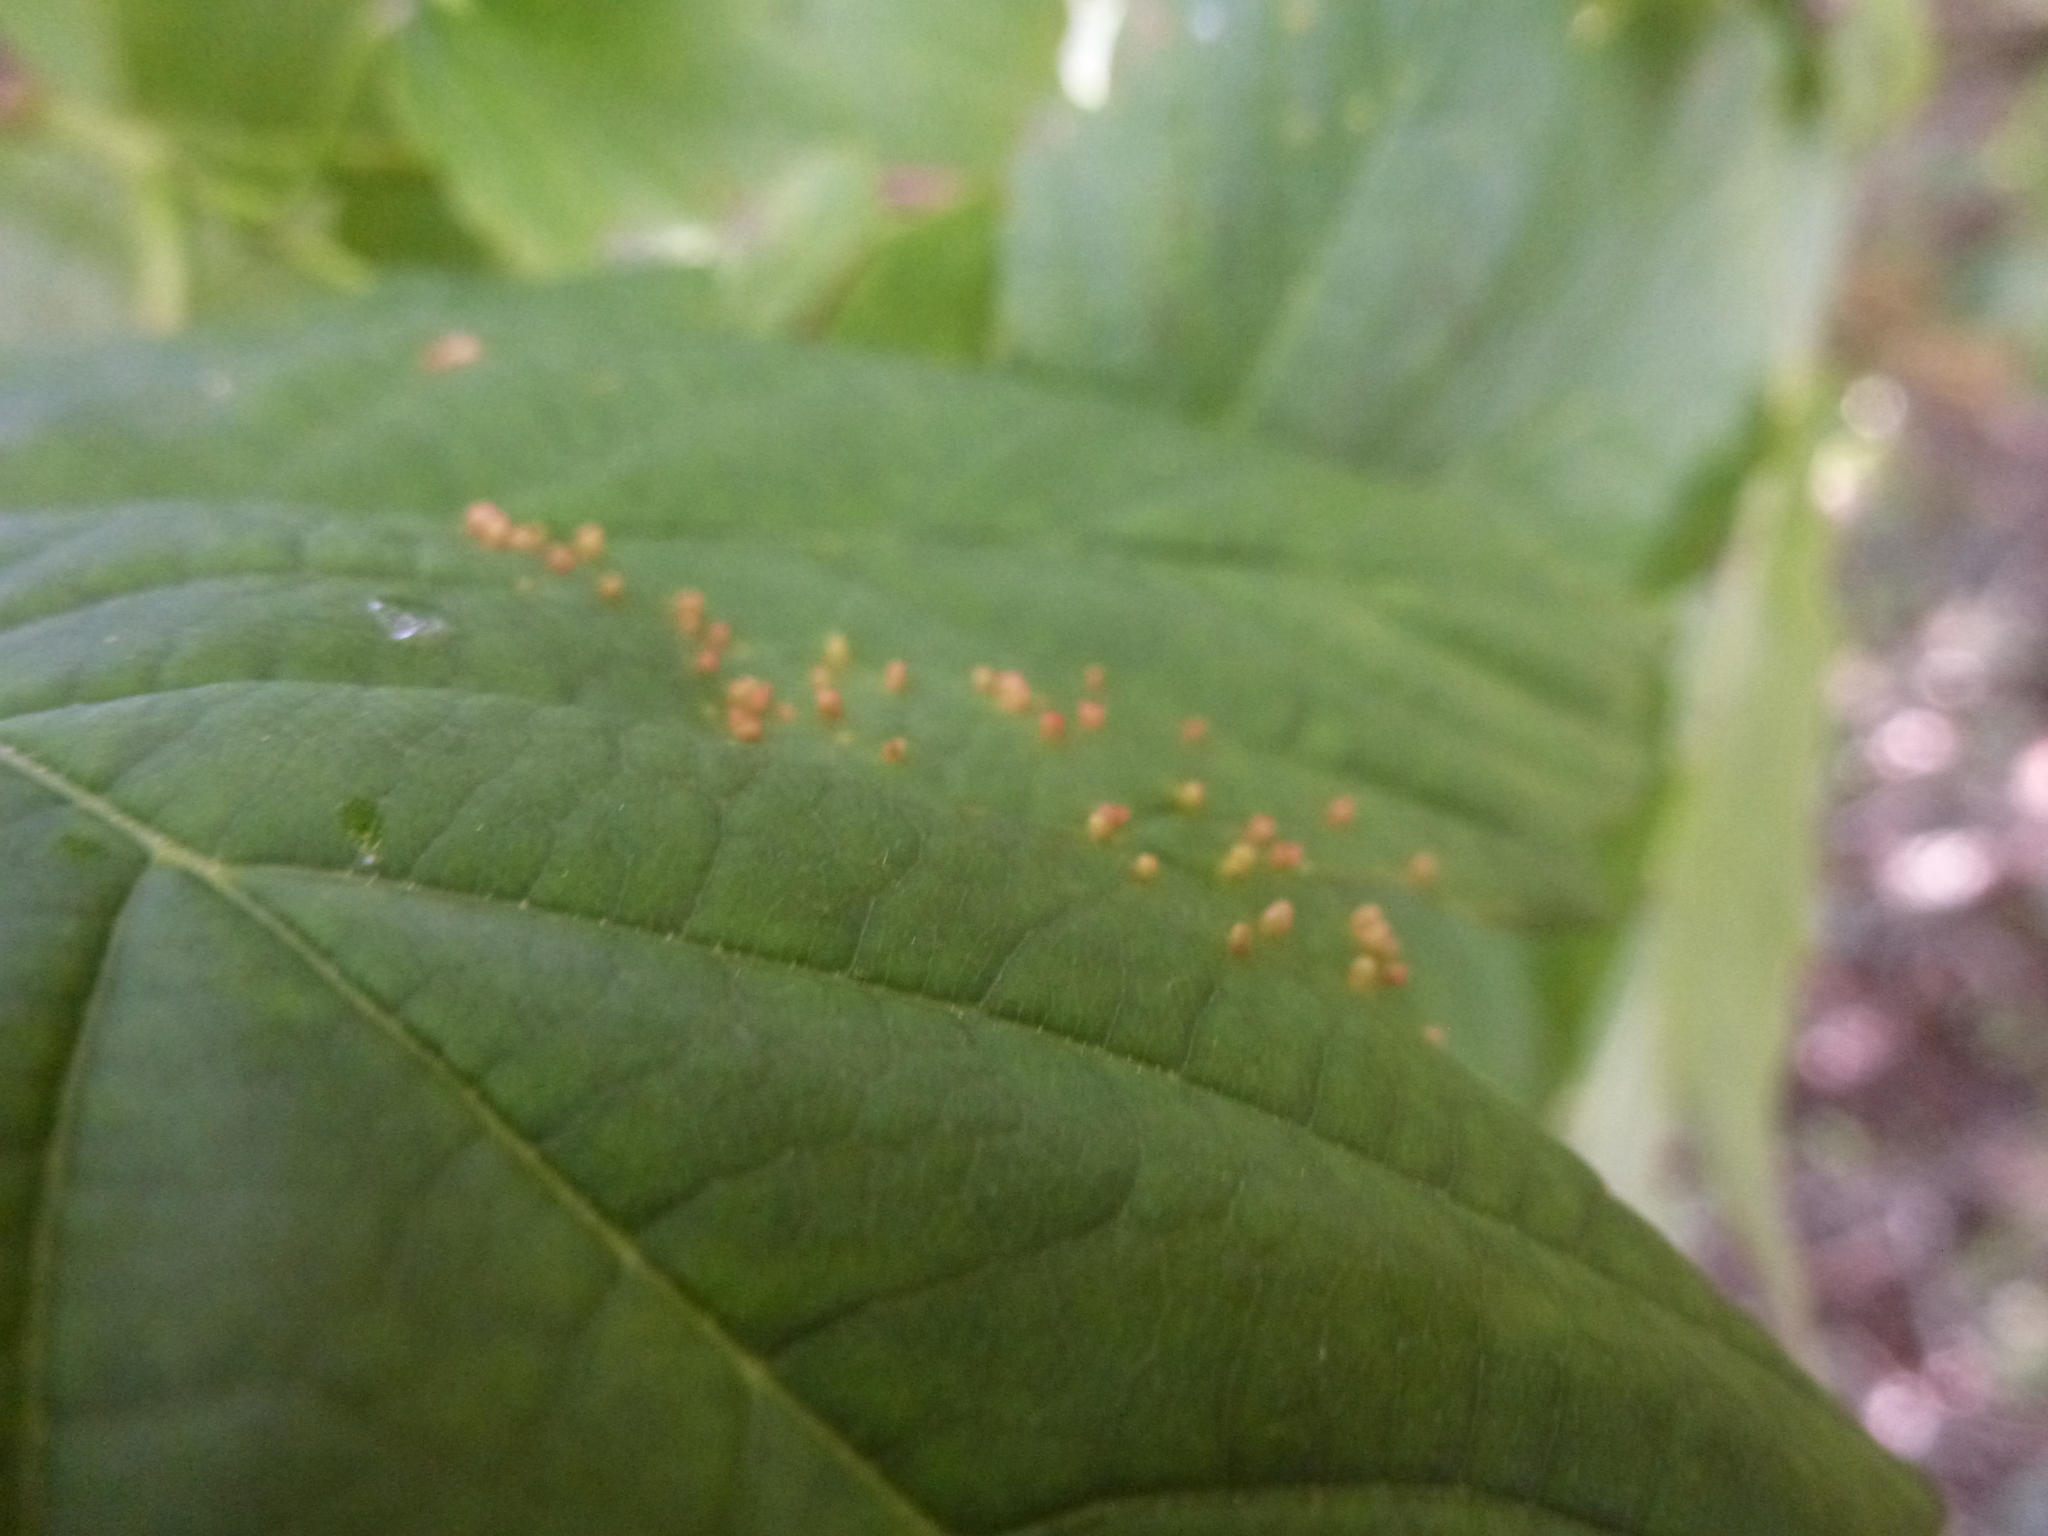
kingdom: Animalia
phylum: Arthropoda
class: Arachnida
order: Trombidiformes
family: Eriophyidae
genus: Aceria
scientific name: Aceria cephaloneus
